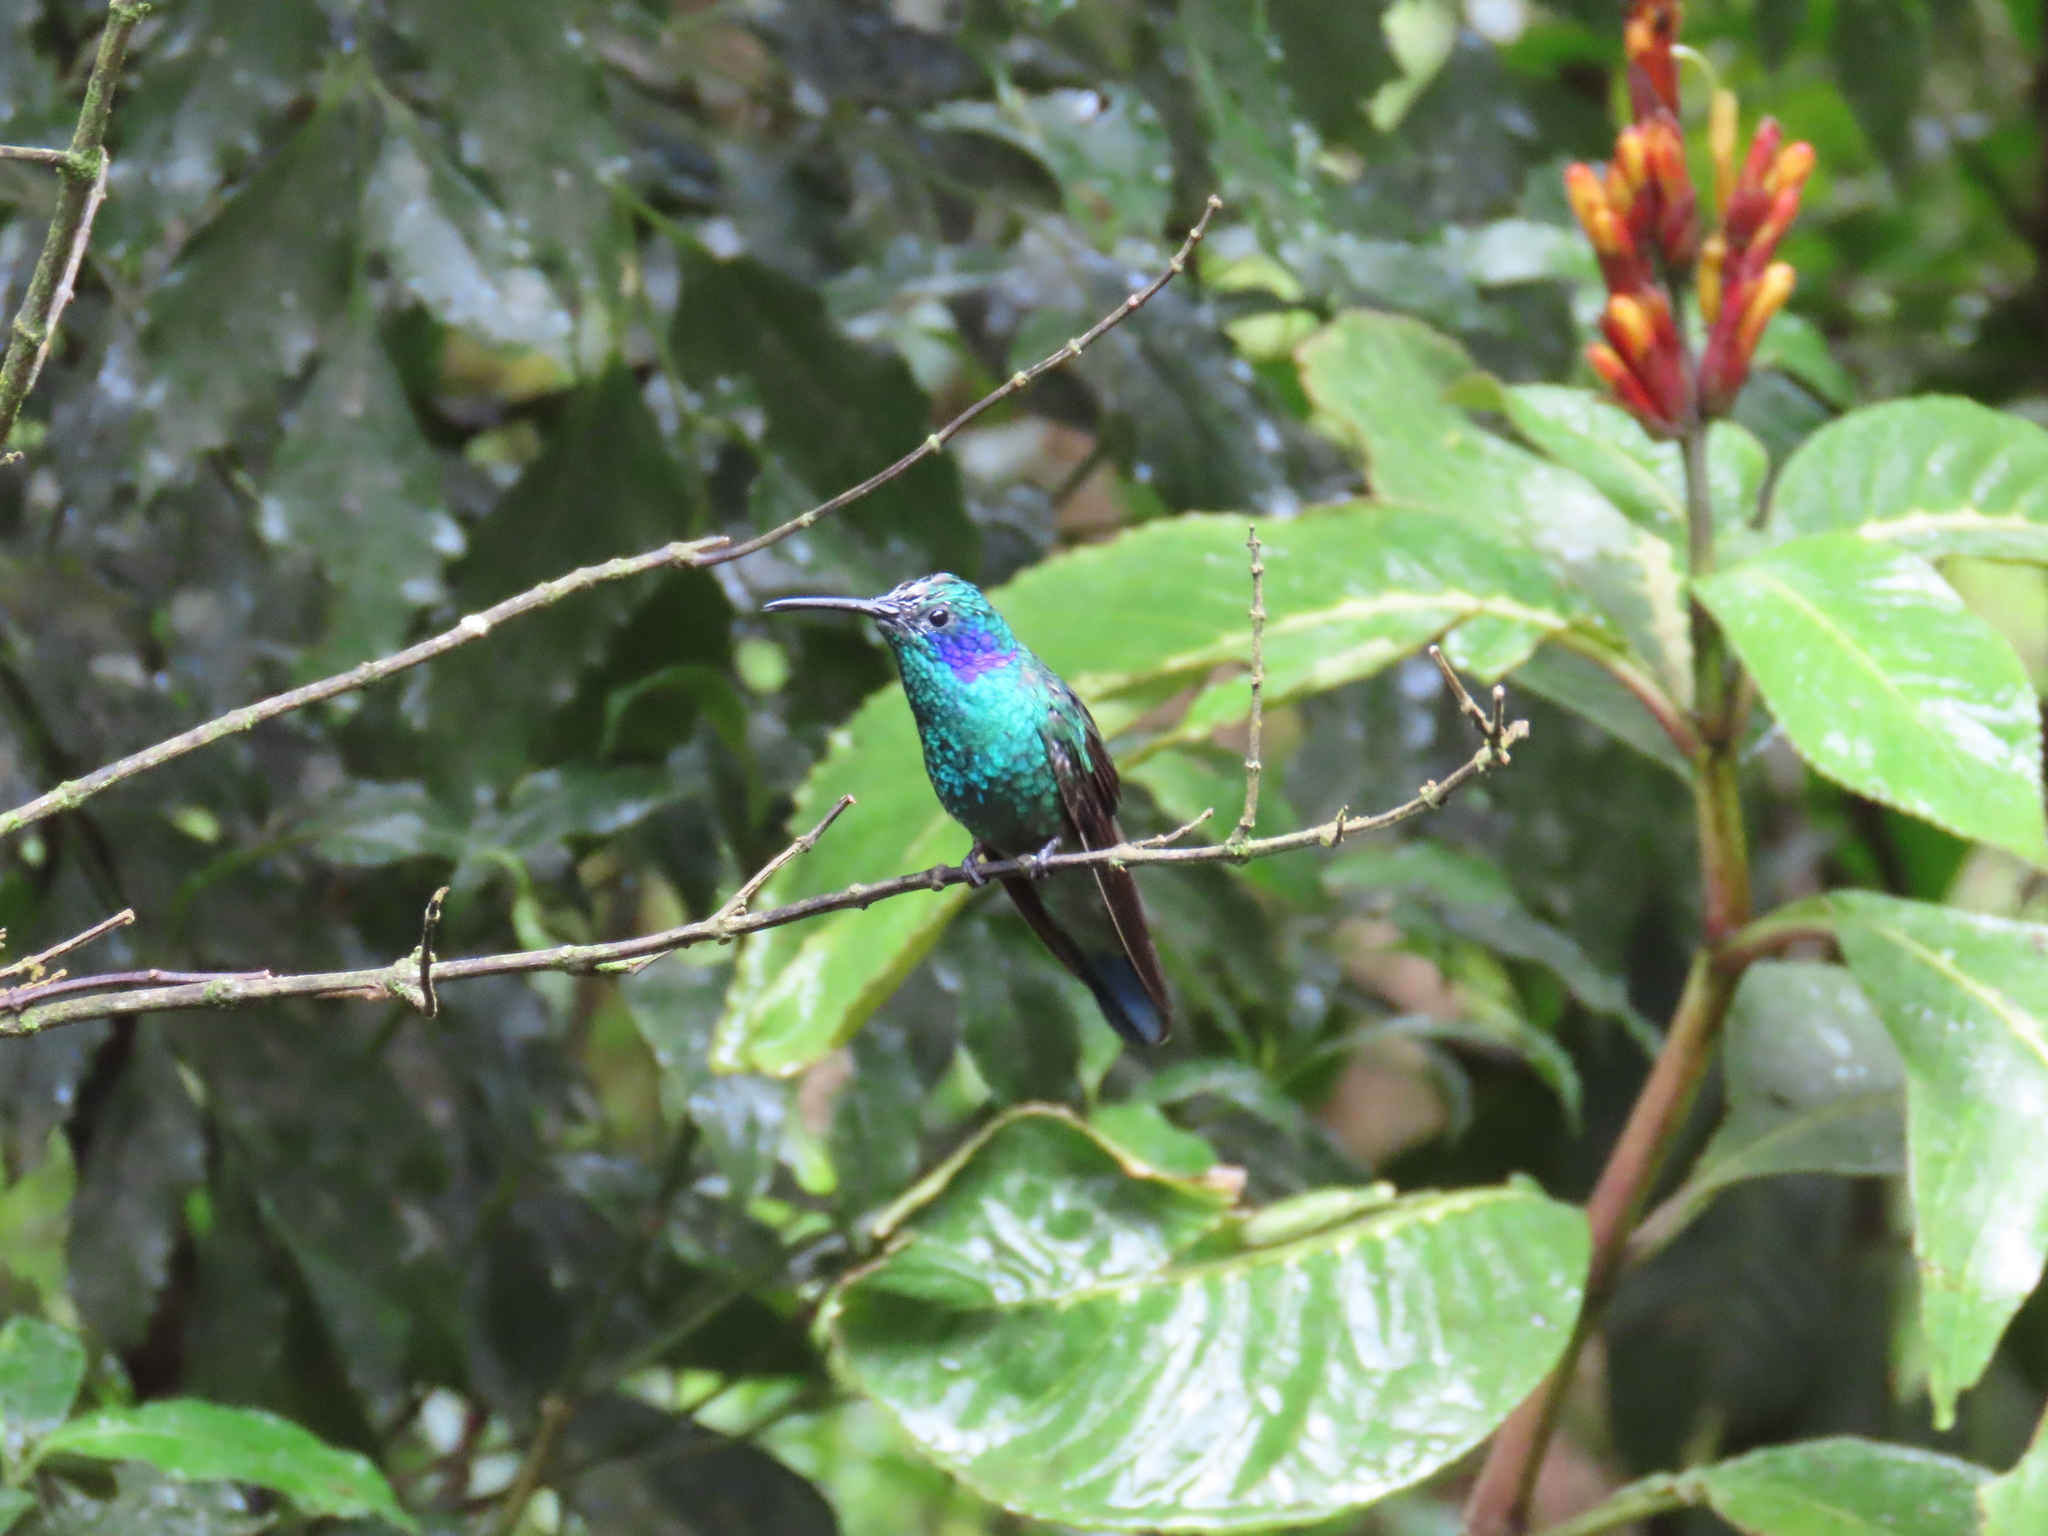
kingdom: Animalia
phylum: Chordata
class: Aves
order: Apodiformes
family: Trochilidae
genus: Colibri
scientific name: Colibri cyanotus
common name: Lesser violetear
